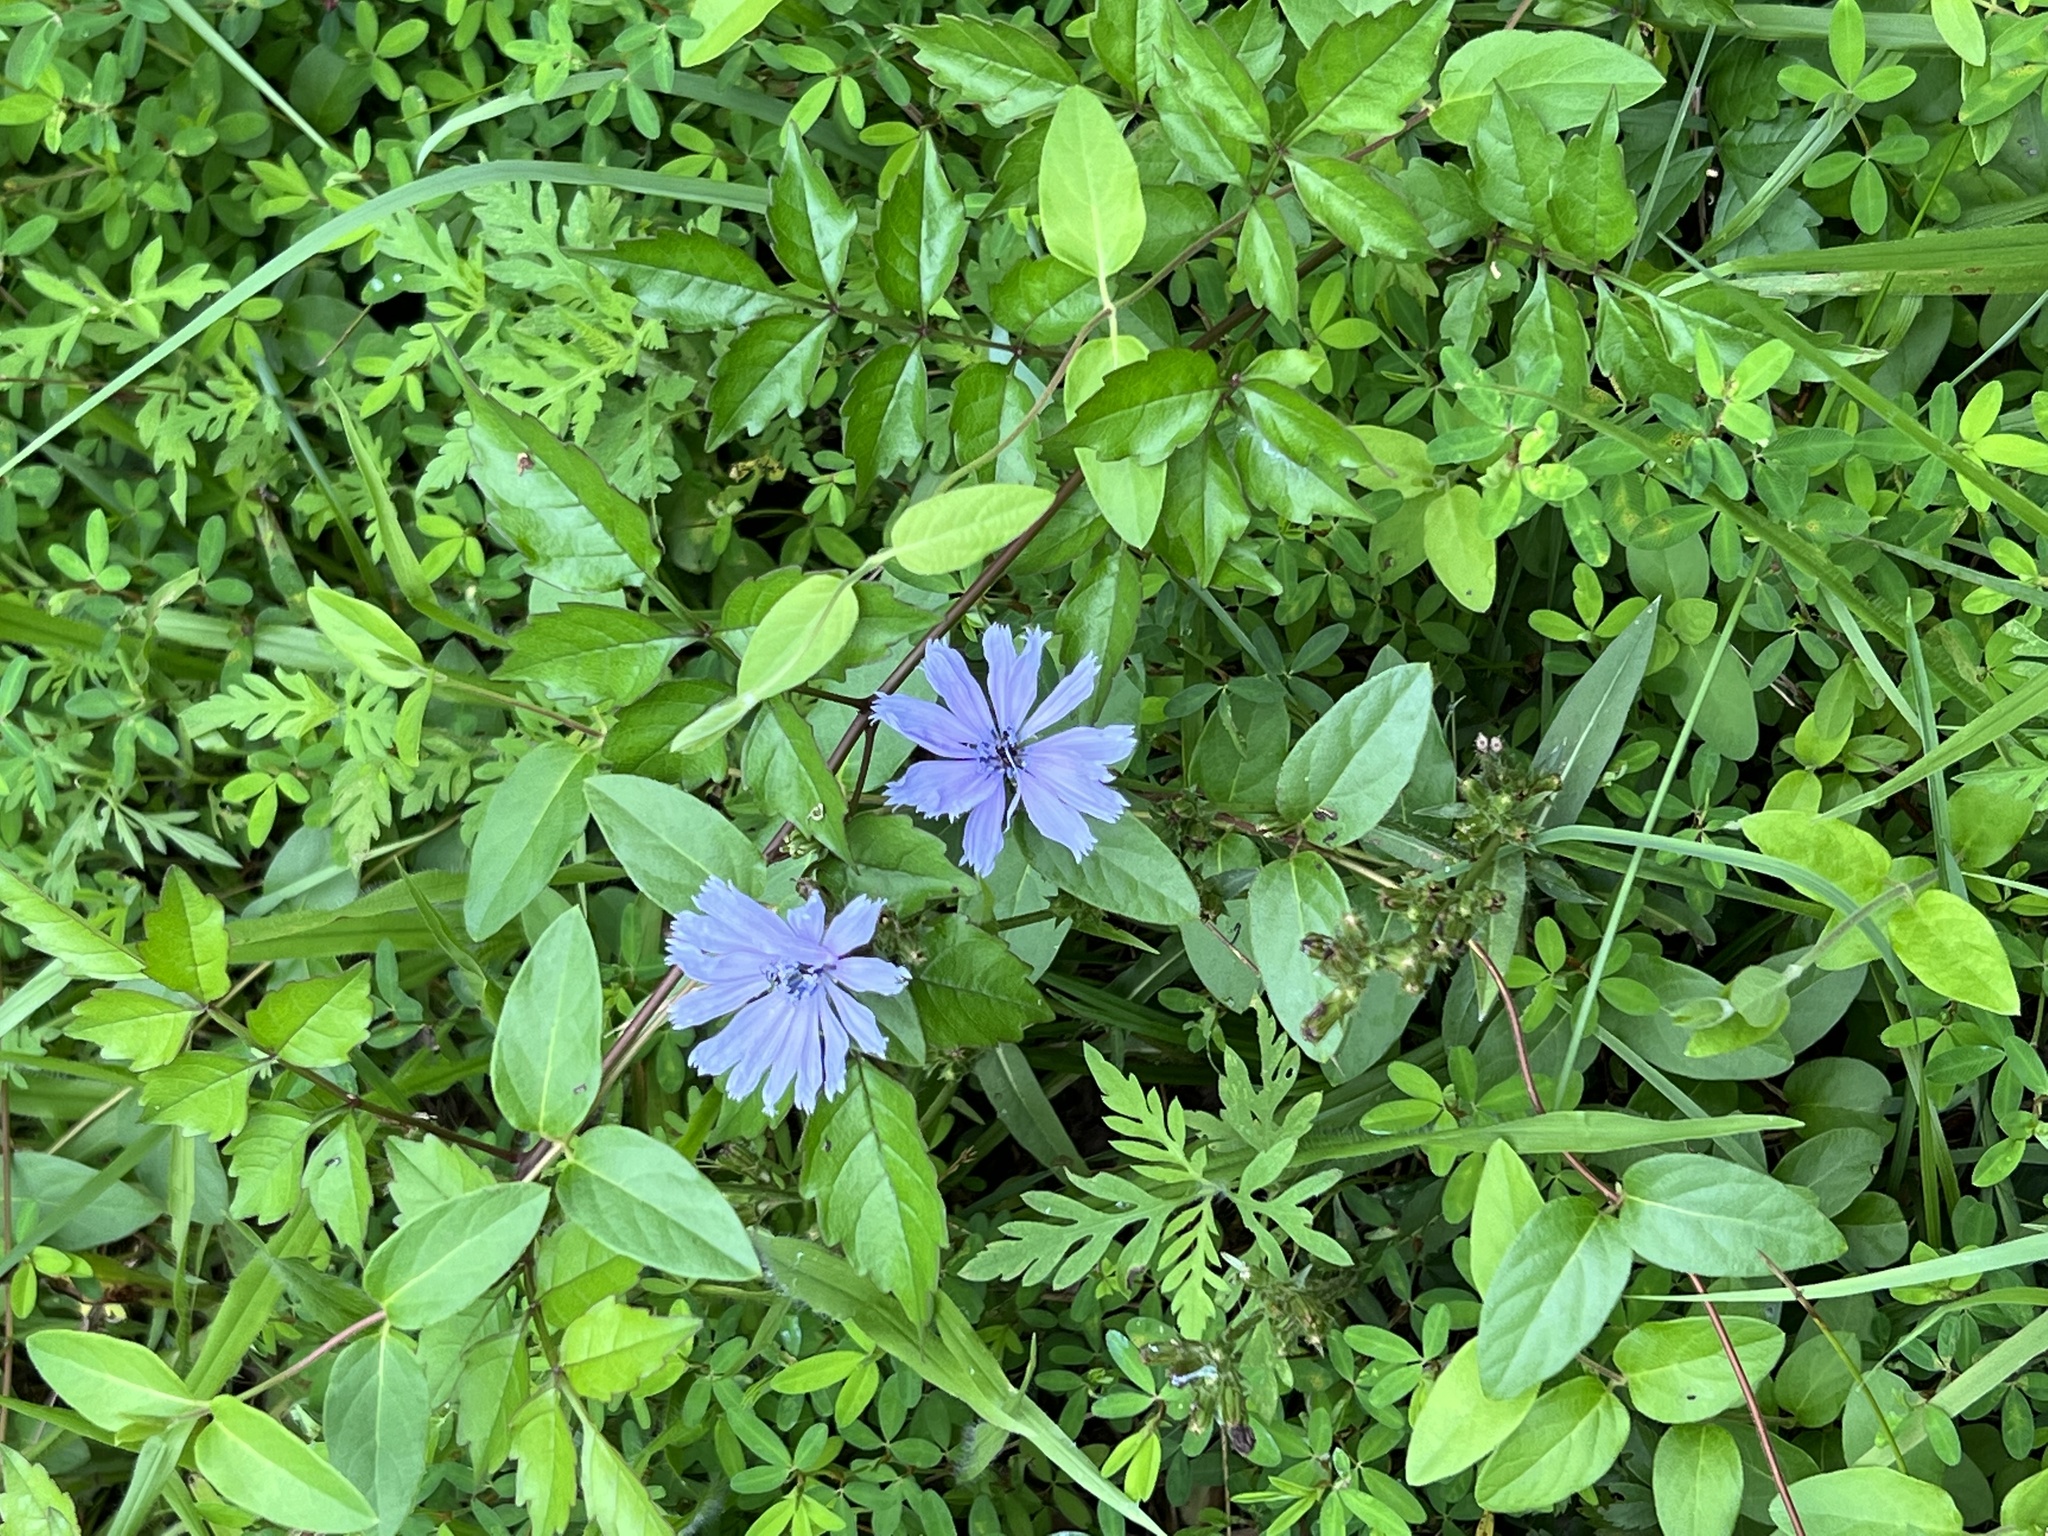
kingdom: Plantae
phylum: Tracheophyta
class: Magnoliopsida
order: Asterales
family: Asteraceae
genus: Cichorium
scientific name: Cichorium intybus
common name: Chicory
